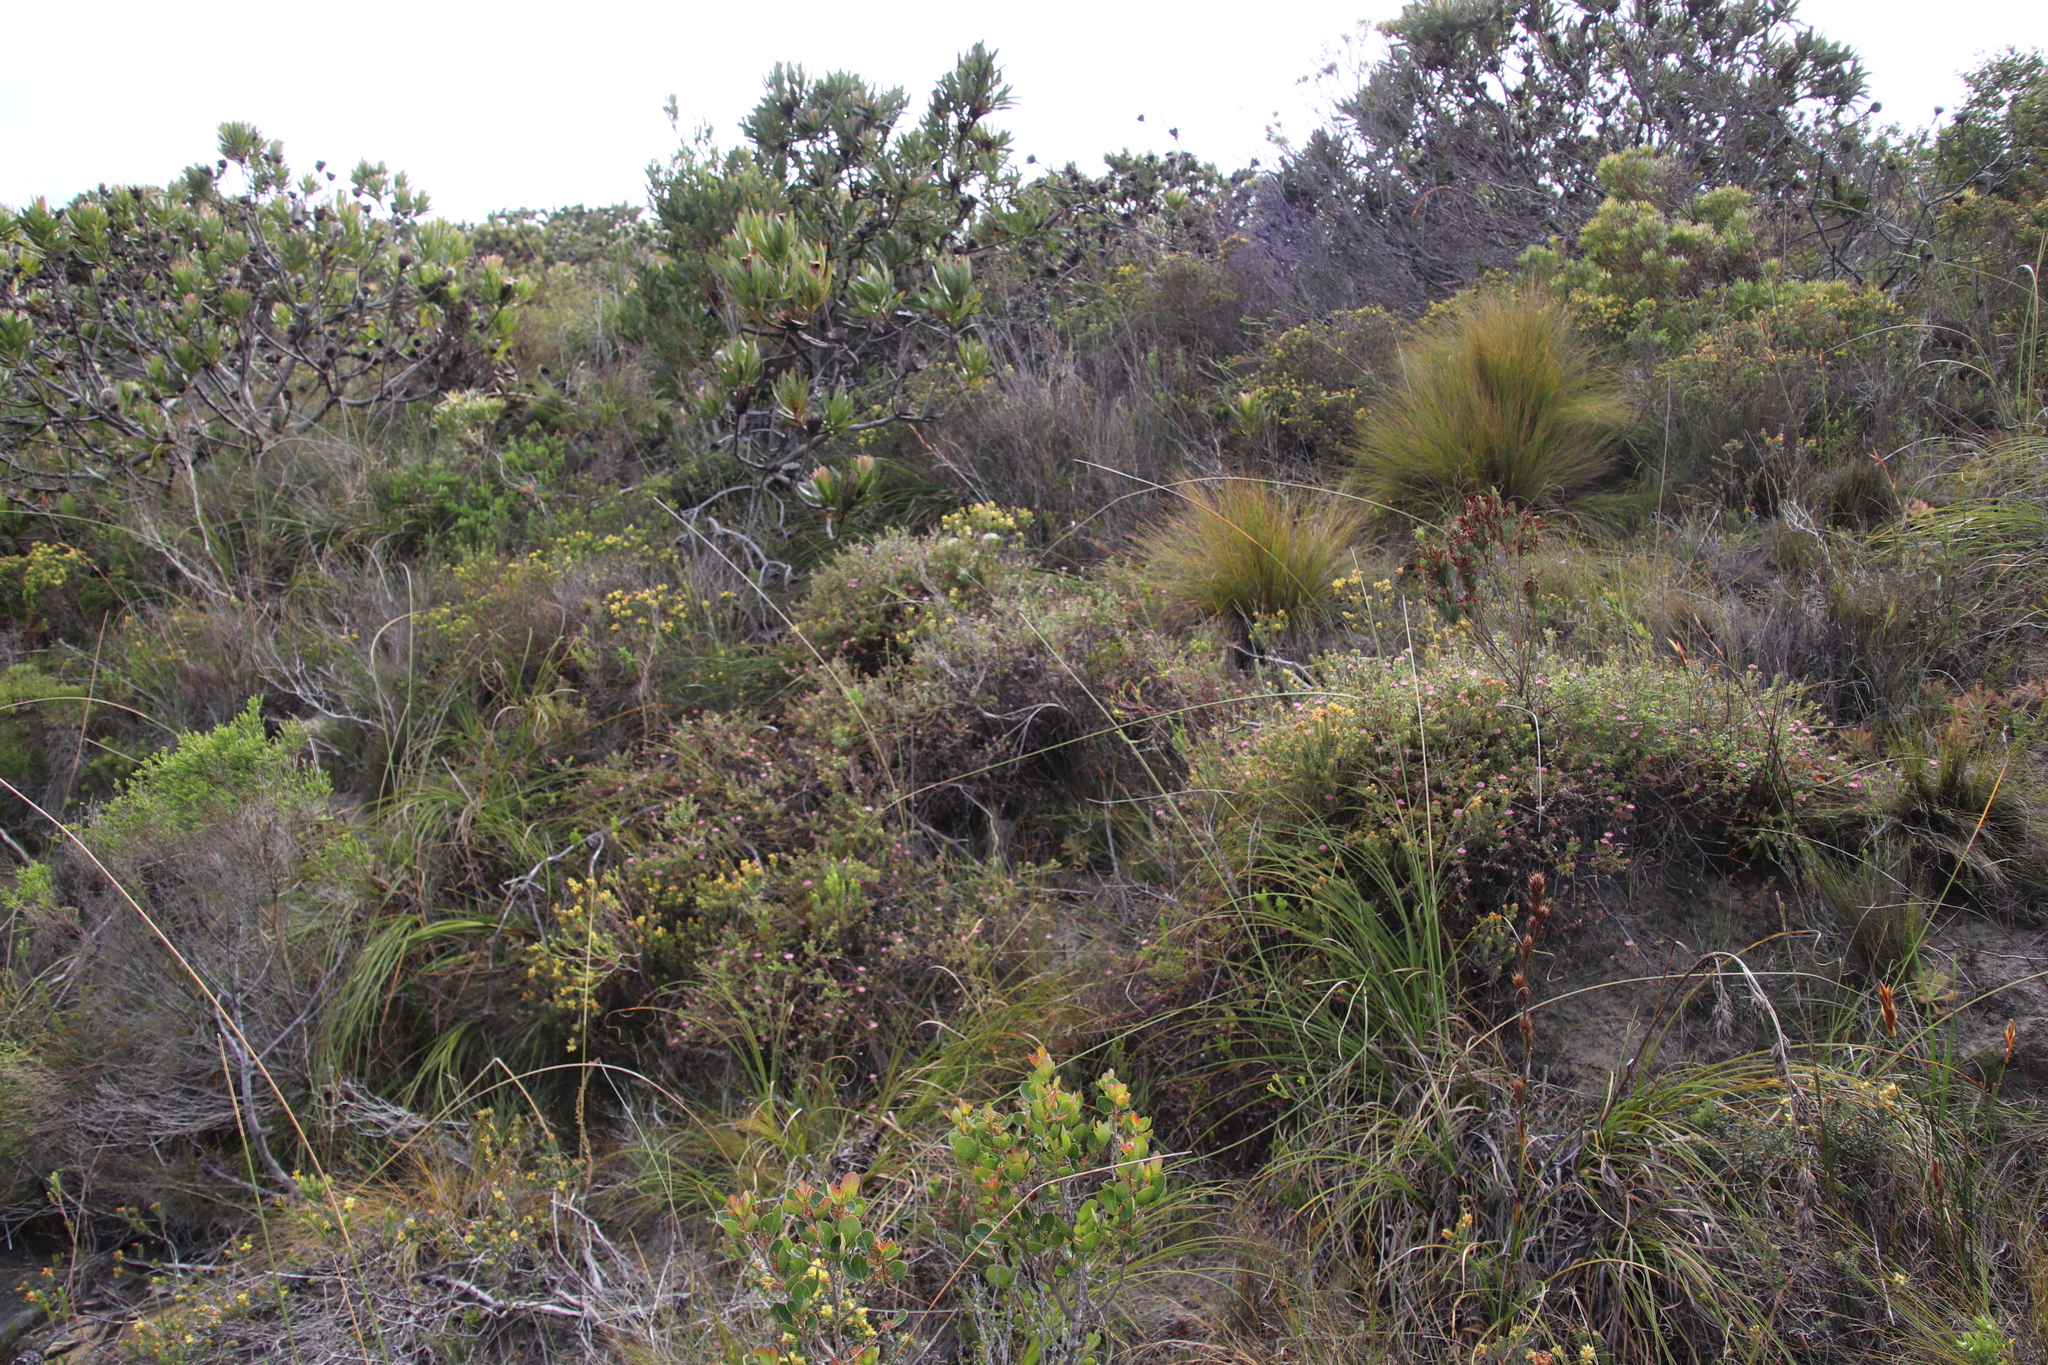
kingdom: Plantae
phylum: Tracheophyta
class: Magnoliopsida
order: Proteales
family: Proteaceae
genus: Diastella
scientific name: Diastella divaricata
